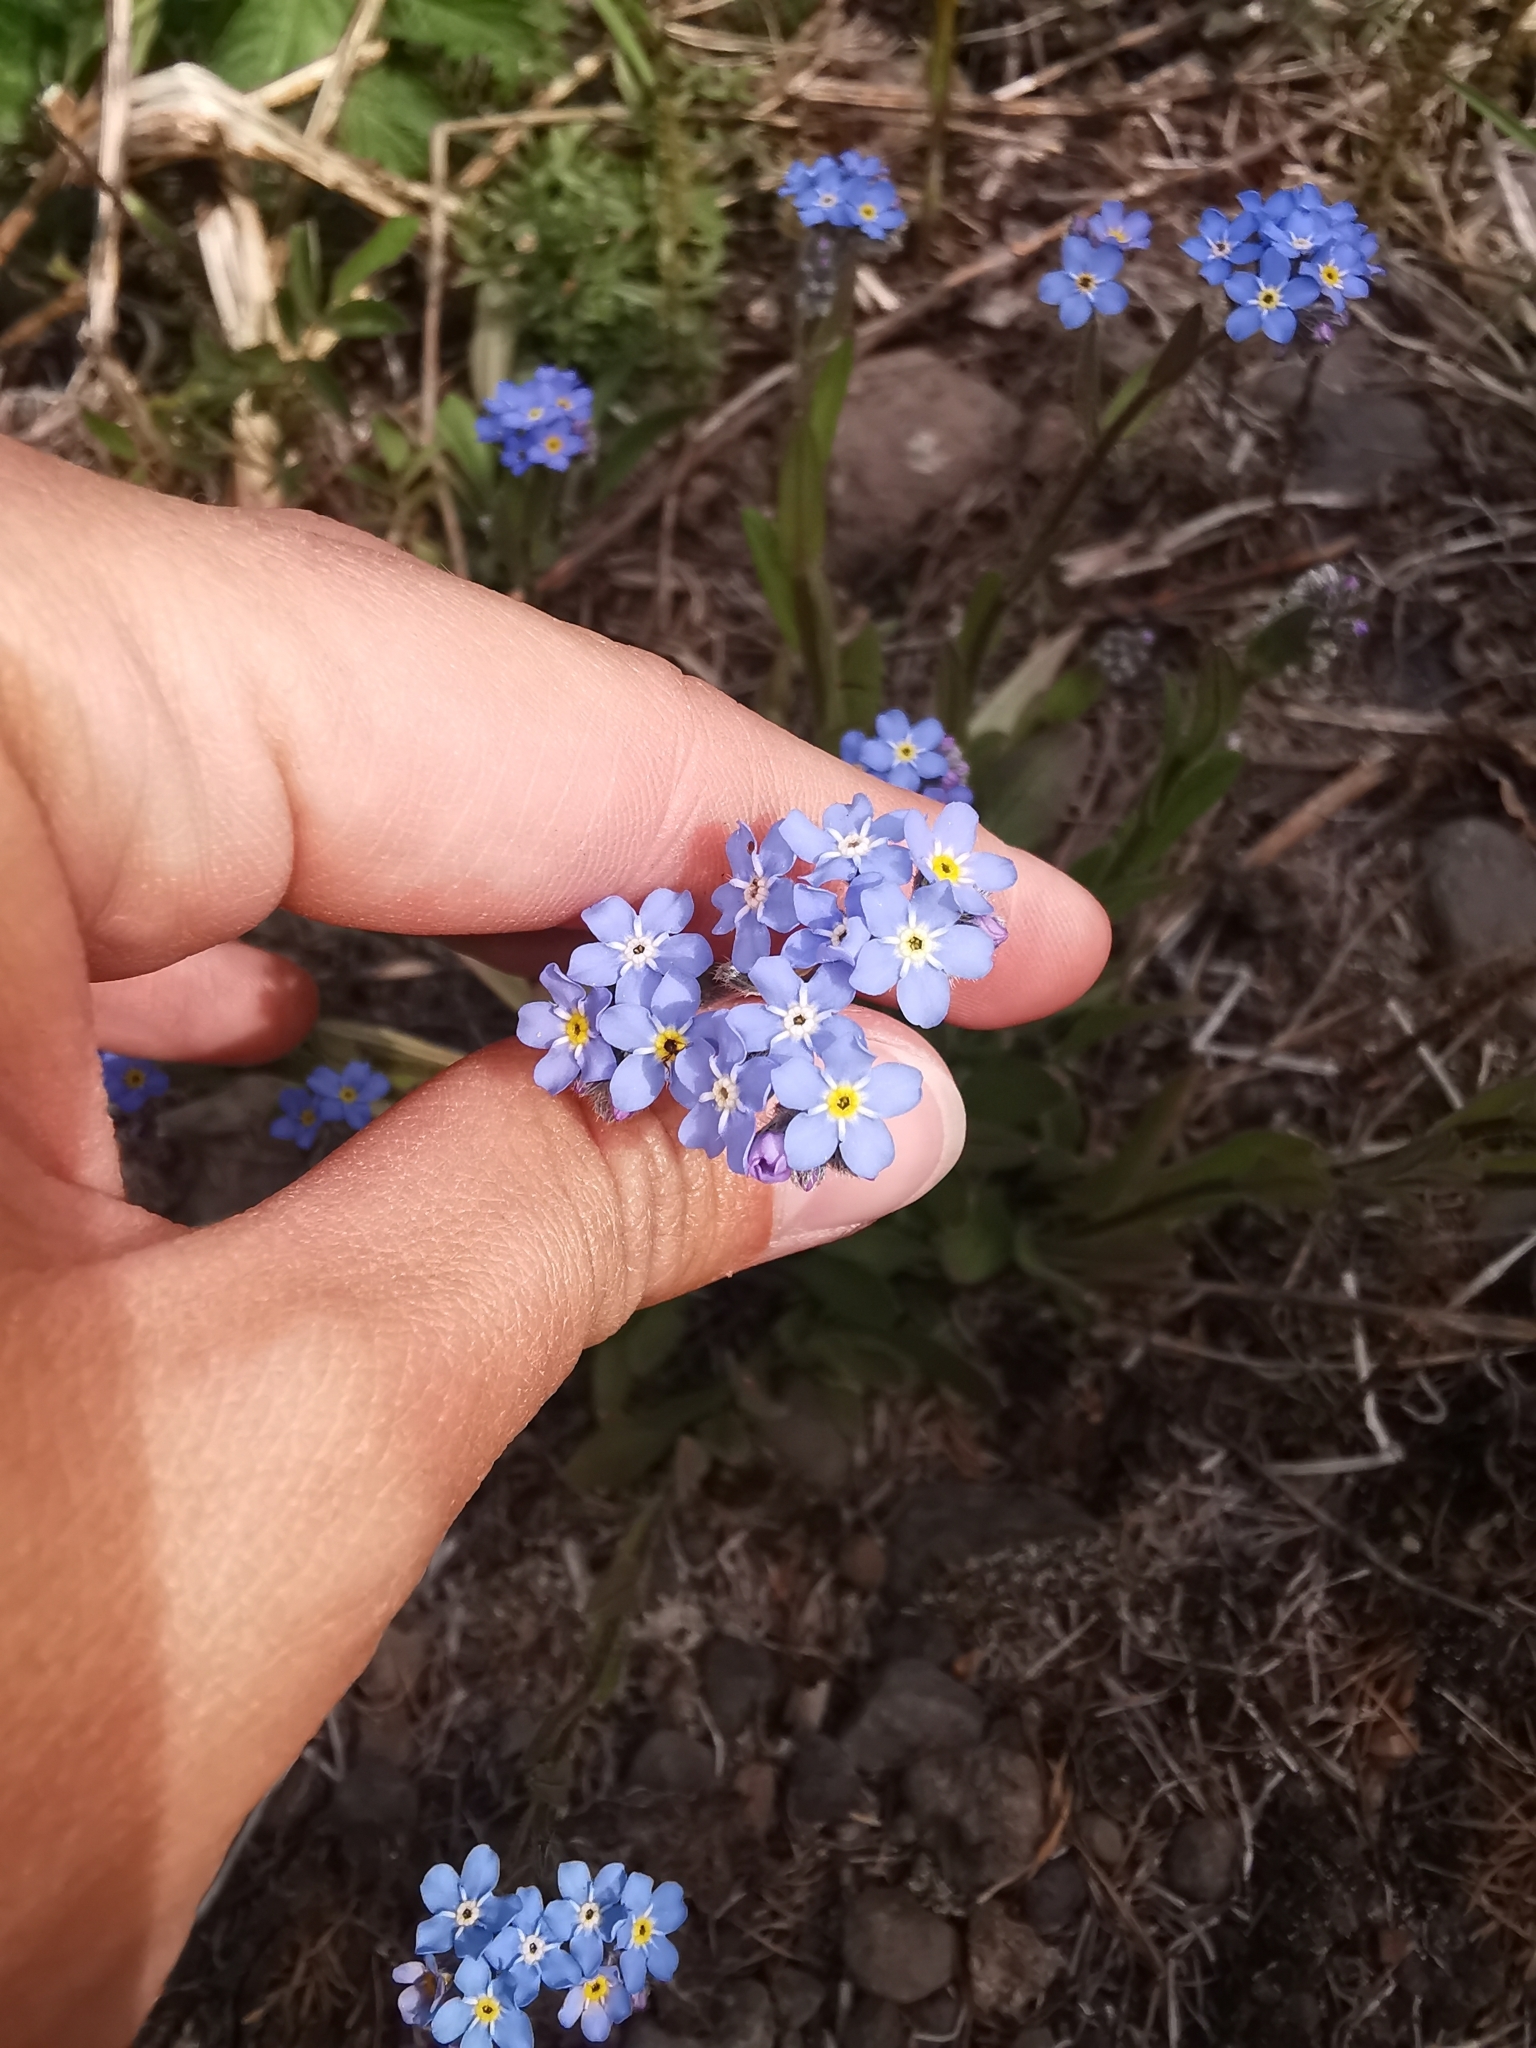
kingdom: Plantae
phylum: Tracheophyta
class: Magnoliopsida
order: Boraginales
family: Boraginaceae
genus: Myosotis
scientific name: Myosotis asiatica
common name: Asian forget-me-not
